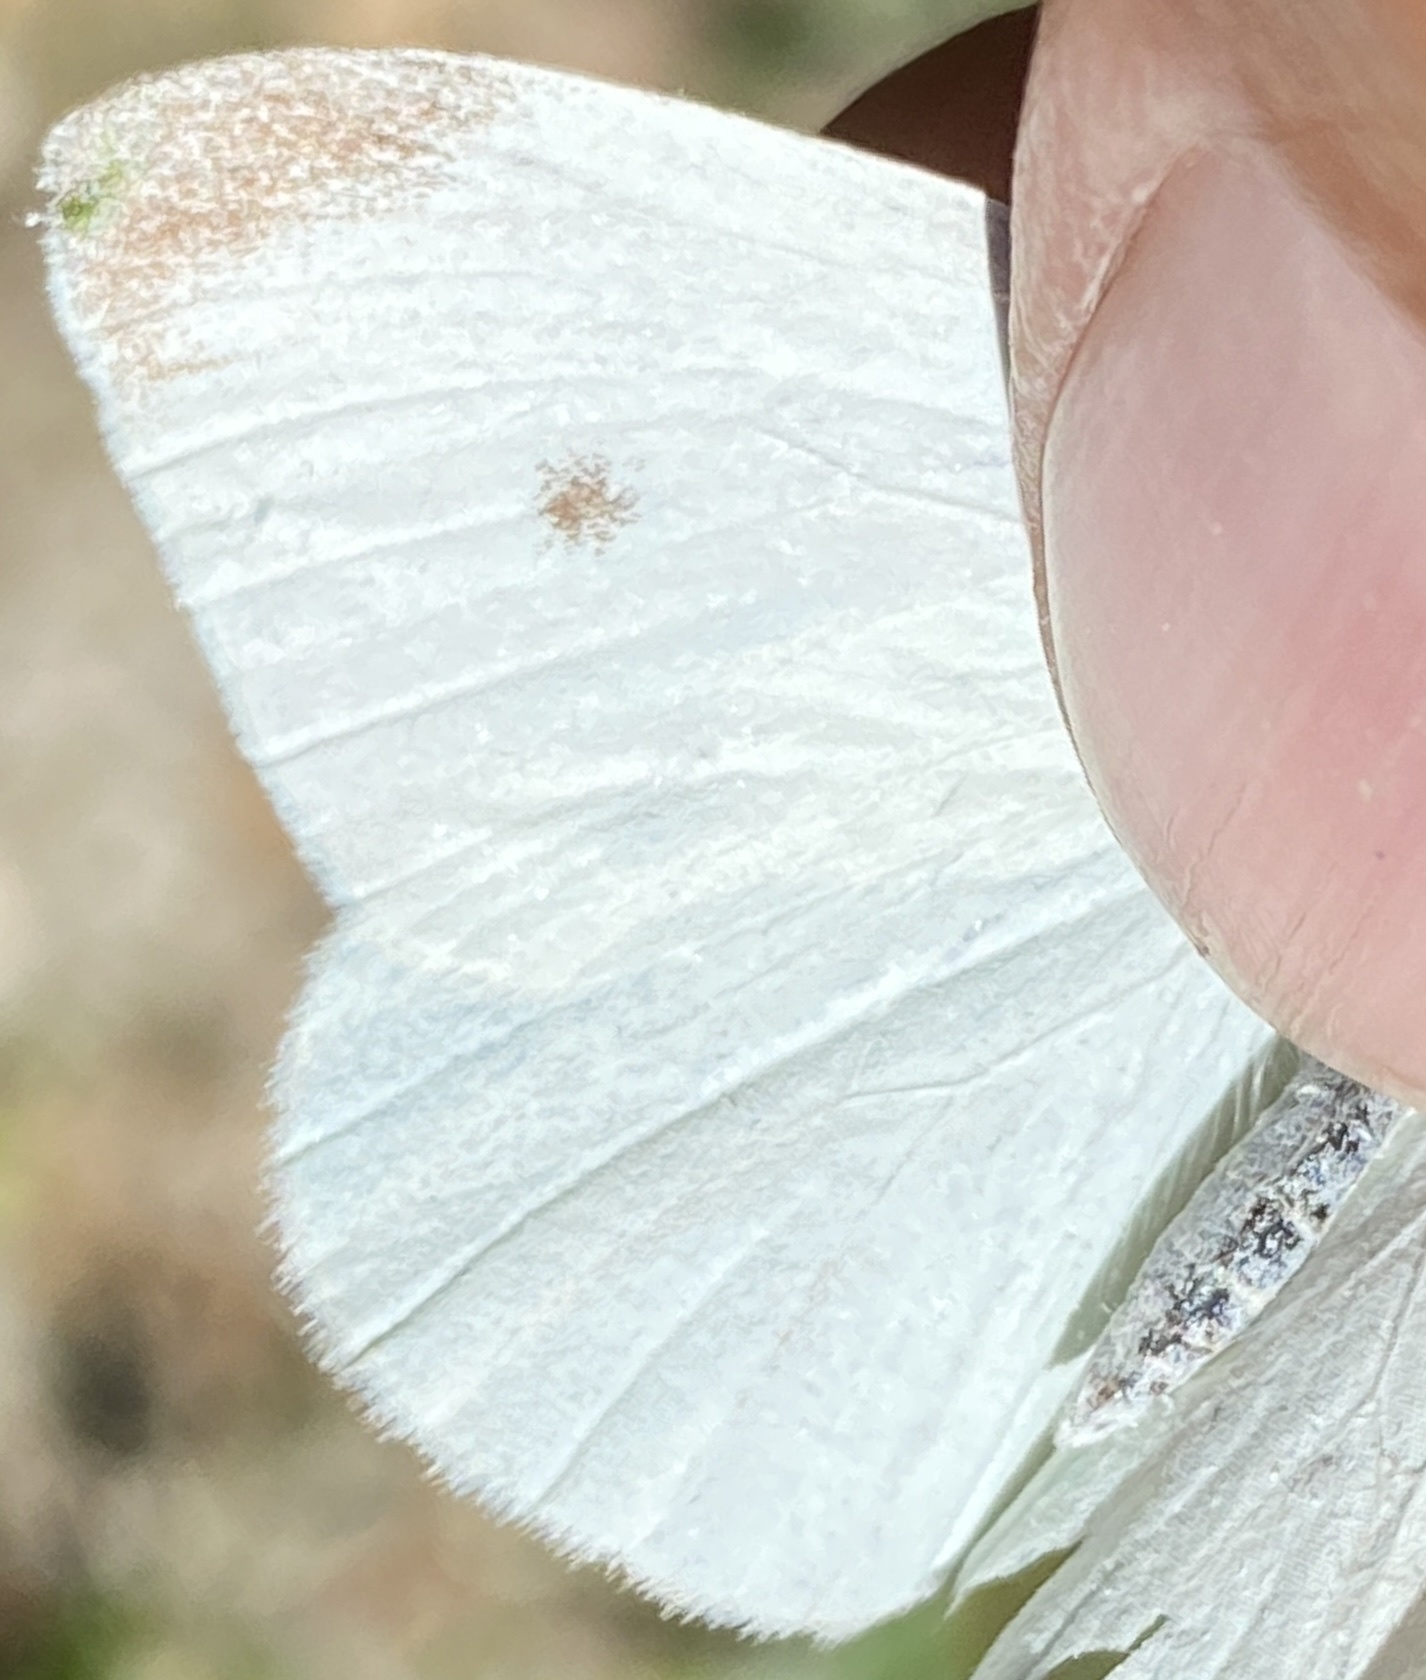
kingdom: Animalia
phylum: Arthropoda
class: Insecta
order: Lepidoptera
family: Pieridae
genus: Pieris
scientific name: Pieris rapae
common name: Small white
